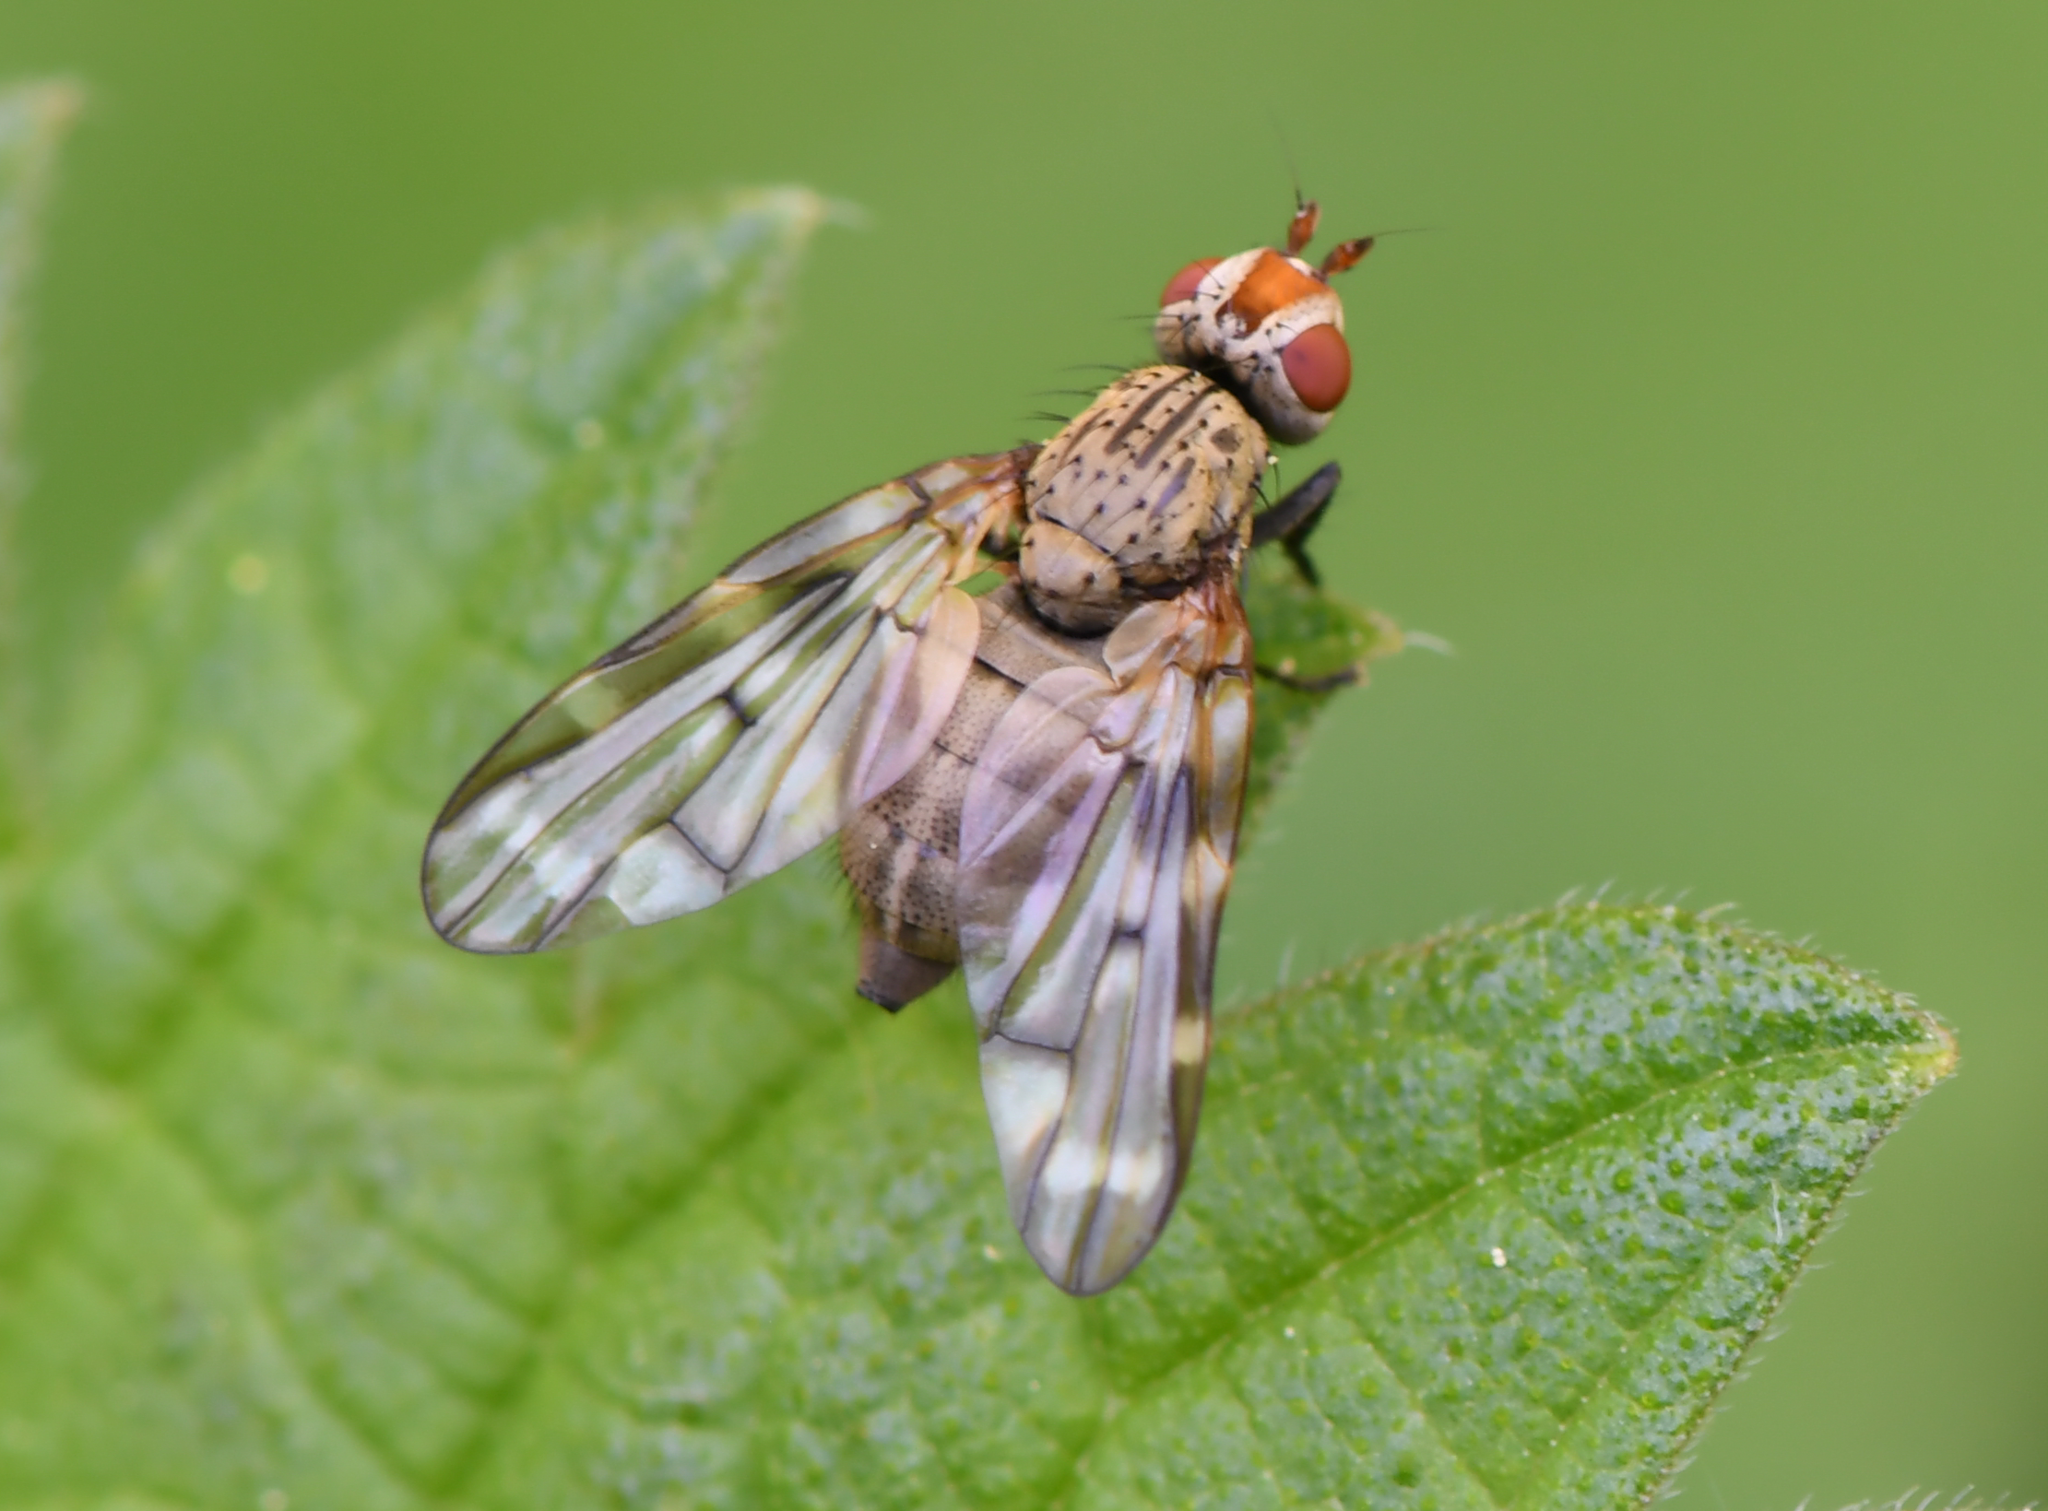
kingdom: Animalia
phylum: Arthropoda
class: Insecta
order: Diptera
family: Ulidiidae
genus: Otites
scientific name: Otites guttata
